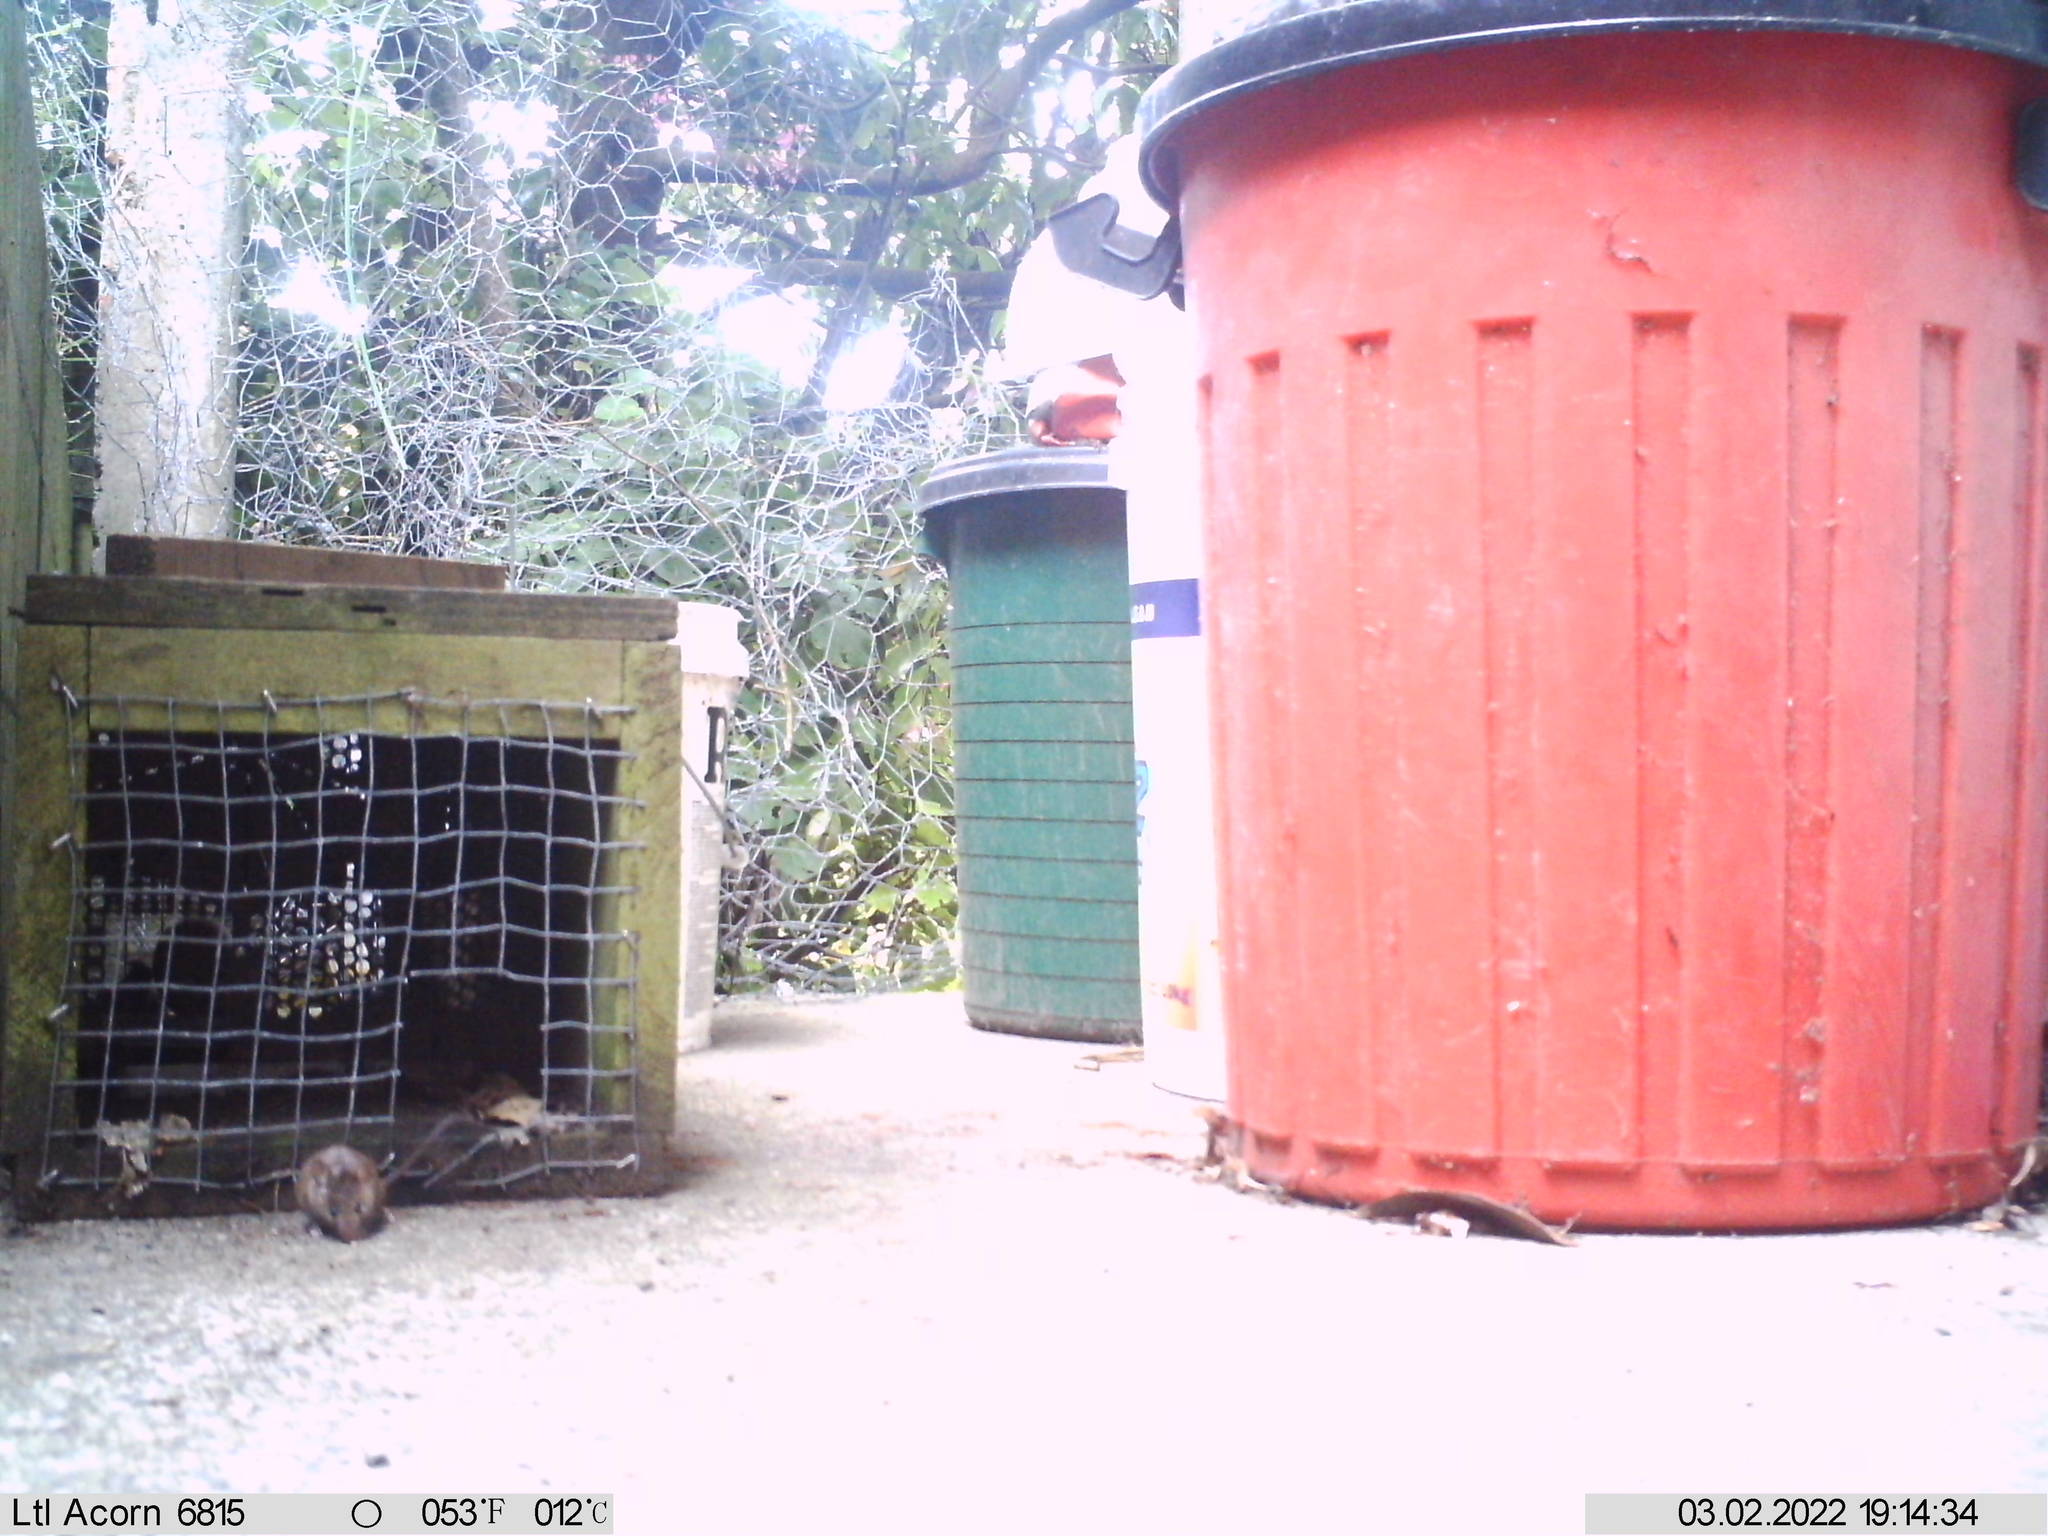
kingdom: Animalia
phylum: Chordata
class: Mammalia
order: Rodentia
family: Muridae
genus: Mus
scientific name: Mus musculus
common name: House mouse
